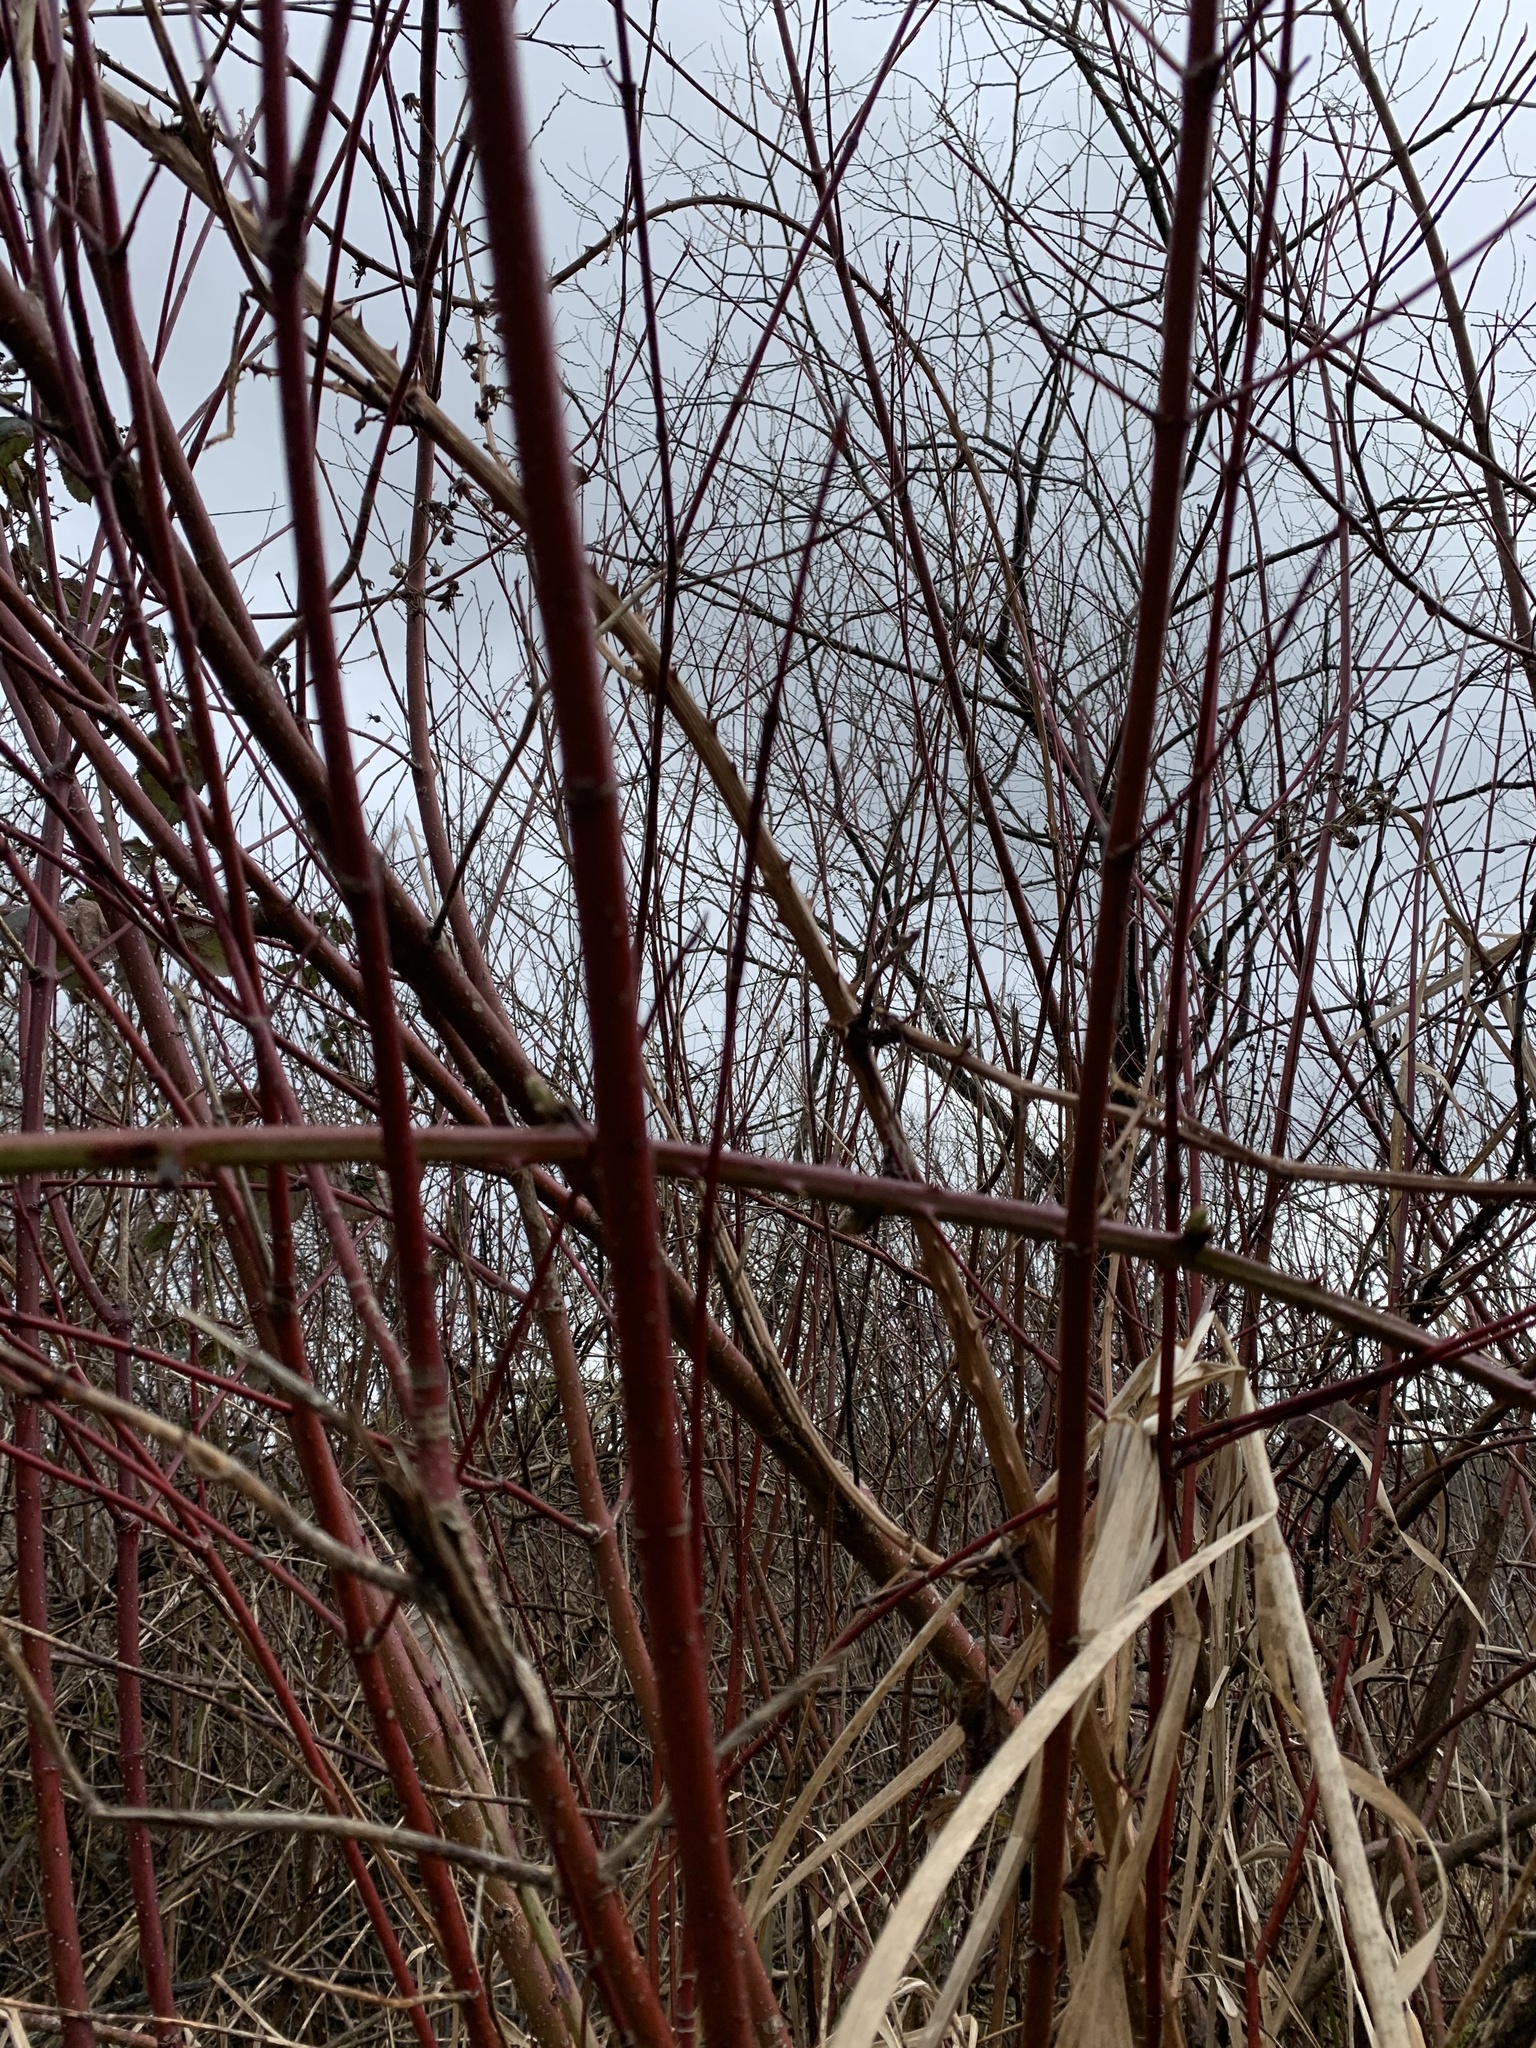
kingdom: Plantae
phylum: Tracheophyta
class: Magnoliopsida
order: Cornales
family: Cornaceae
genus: Cornus
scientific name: Cornus sericea
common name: Red-osier dogwood
